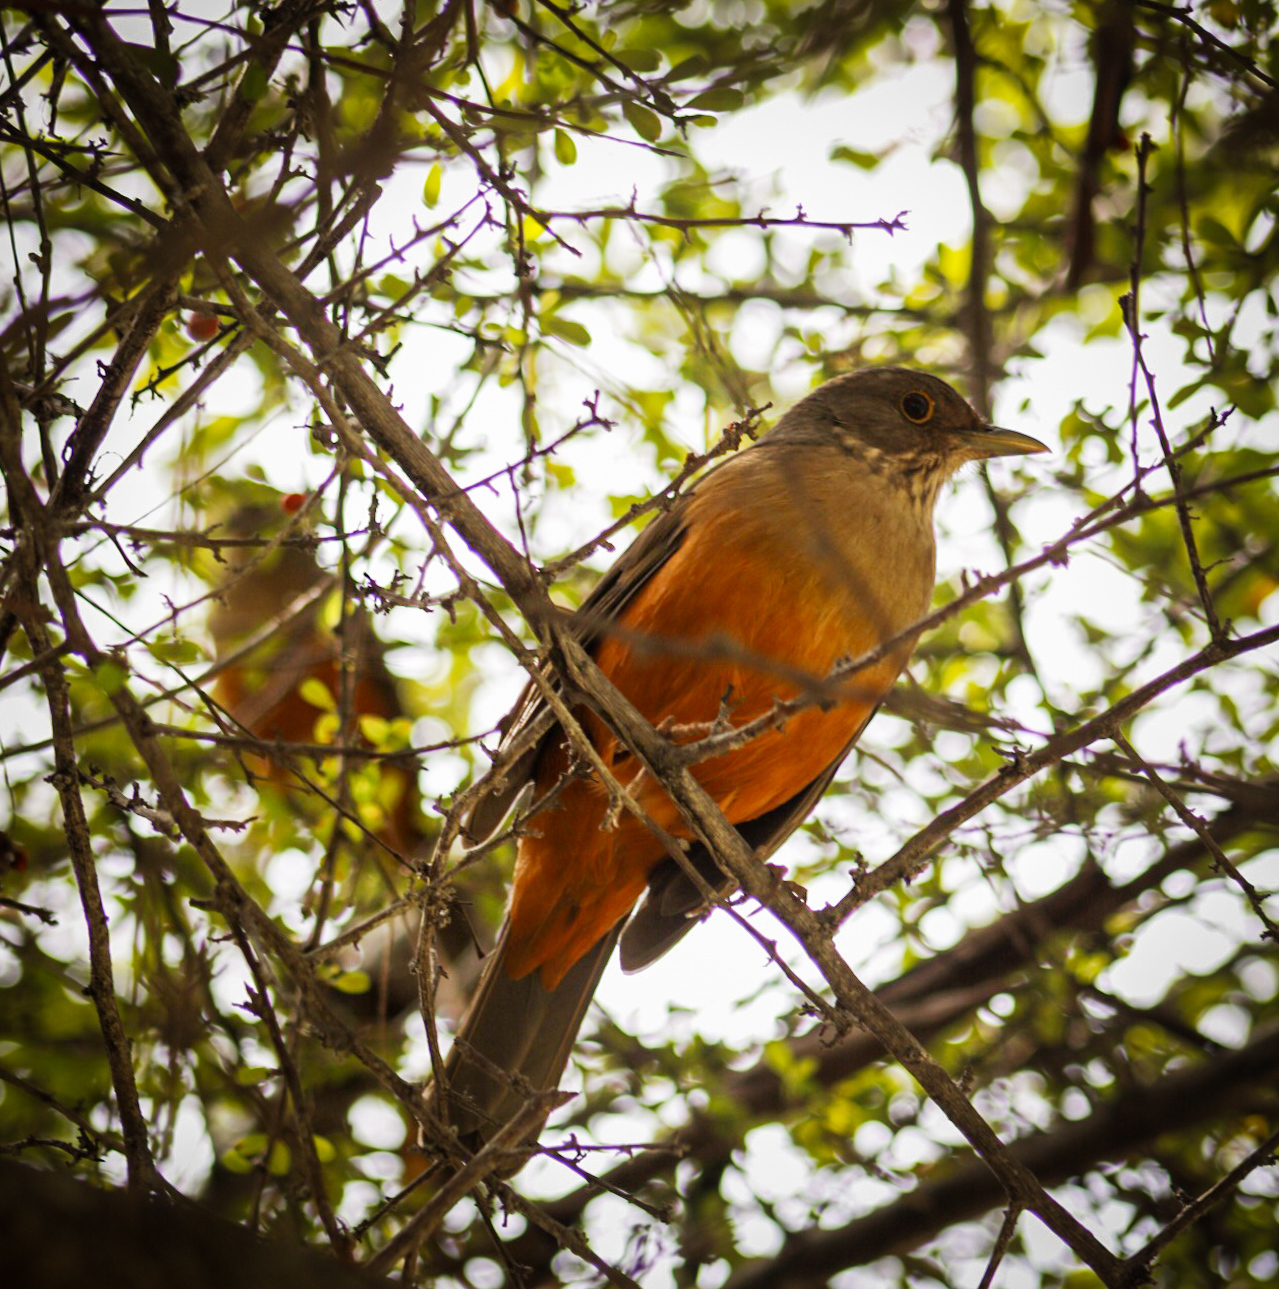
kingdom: Animalia
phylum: Chordata
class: Aves
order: Passeriformes
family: Turdidae
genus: Turdus
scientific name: Turdus rufiventris
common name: Rufous-bellied thrush
